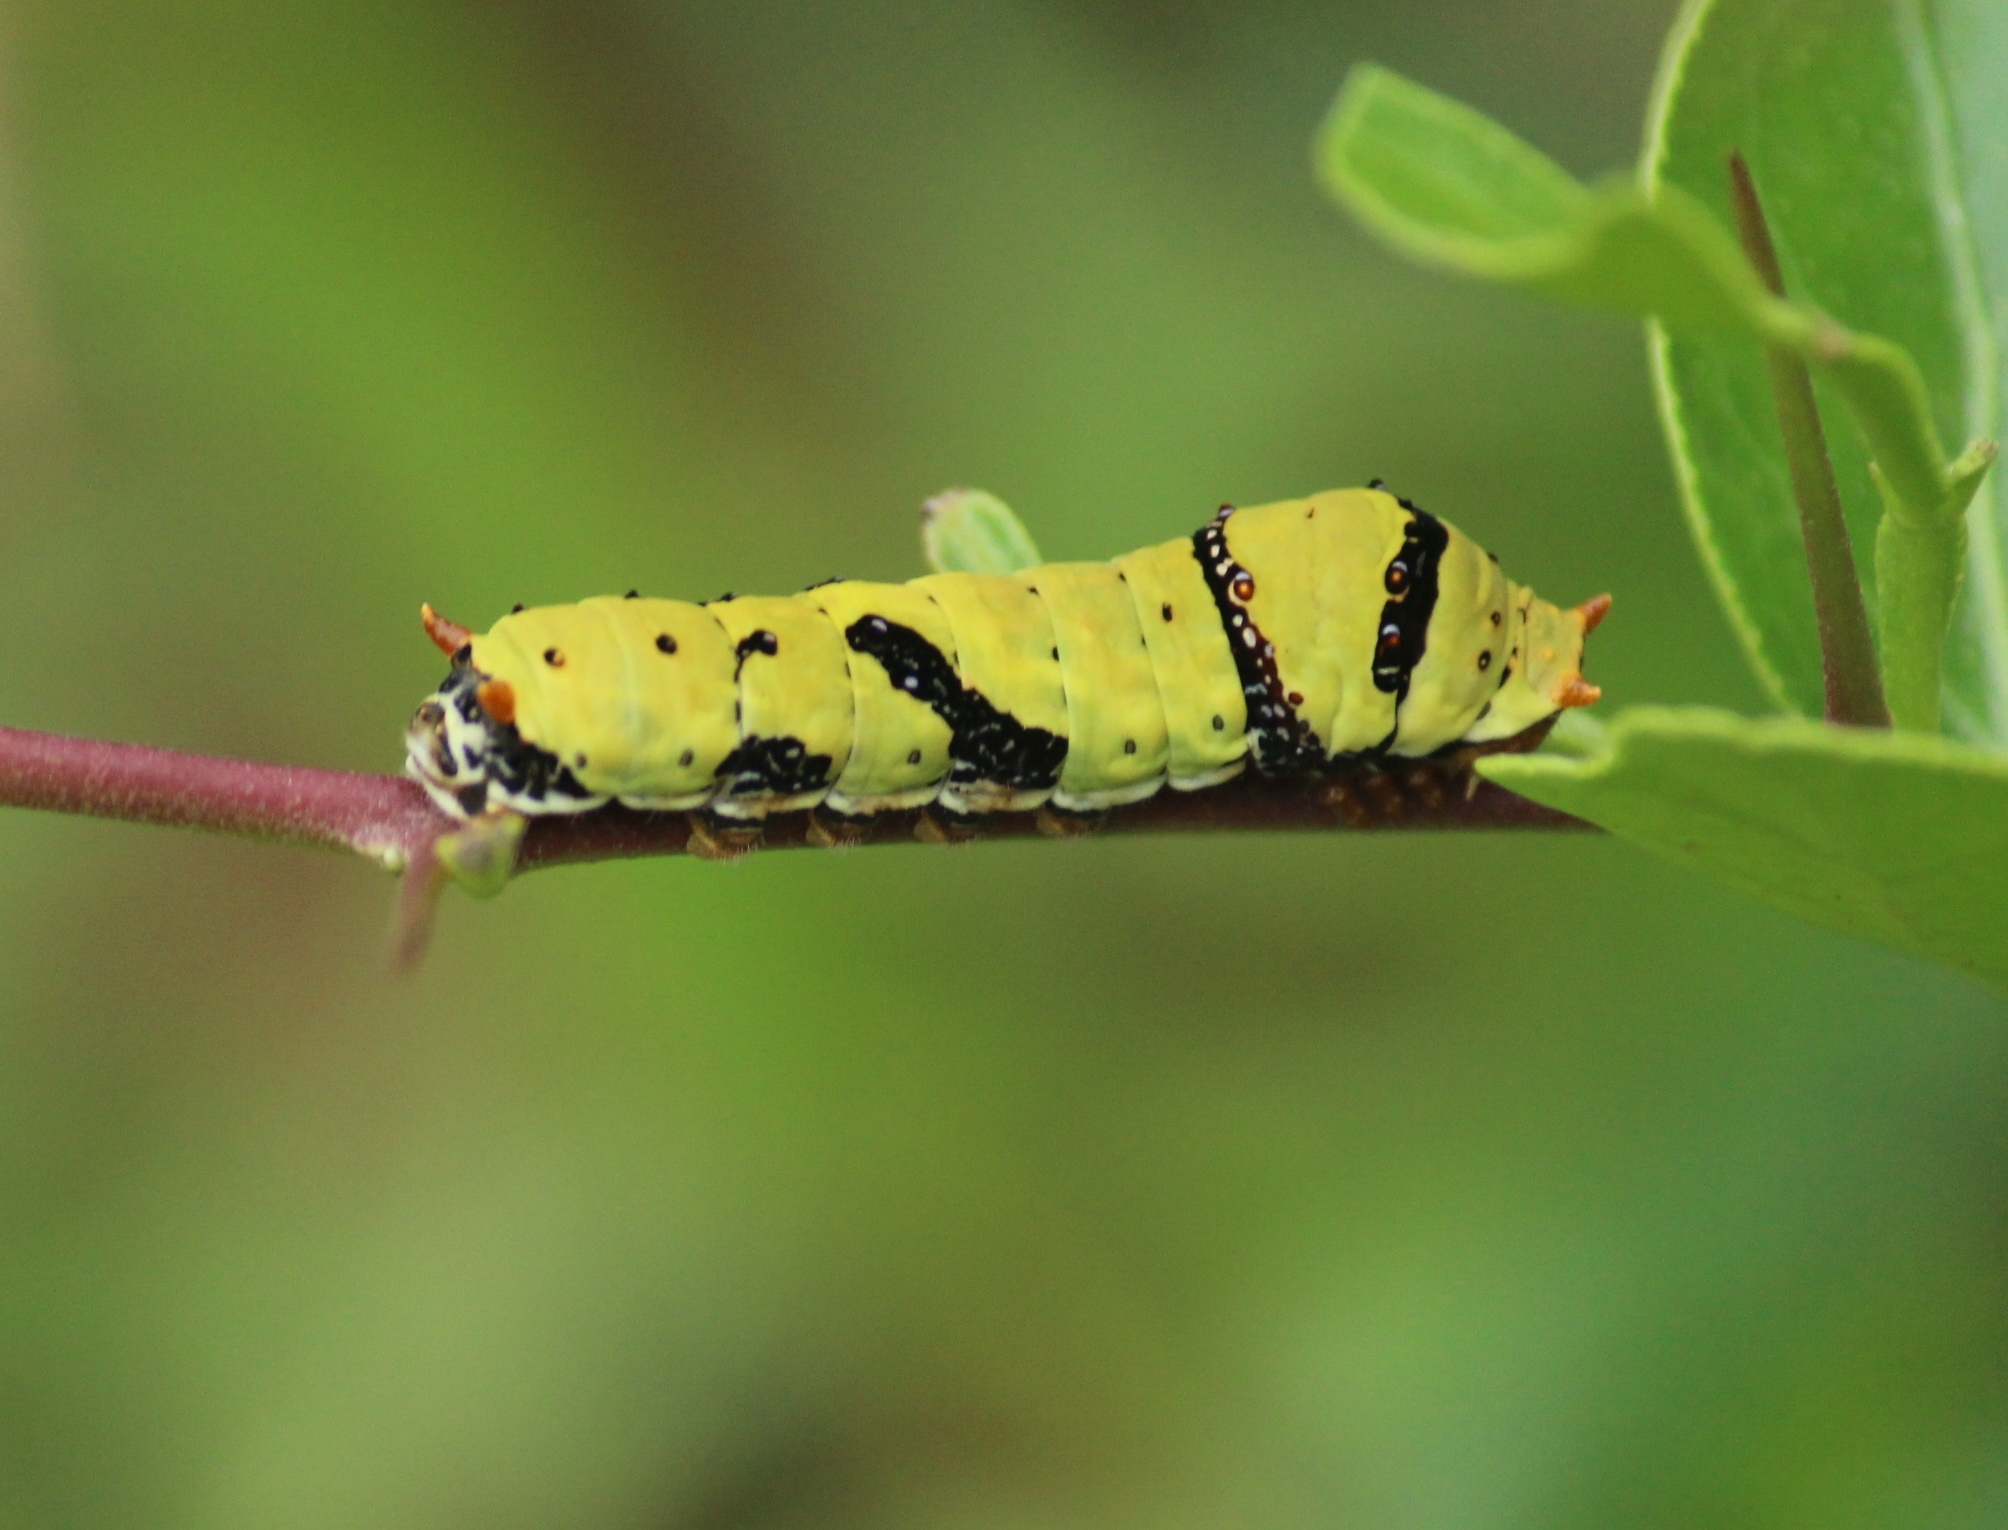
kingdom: Animalia
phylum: Arthropoda
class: Insecta
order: Lepidoptera
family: Papilionidae
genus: Papilio
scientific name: Papilio demoleus
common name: Lime butterfly
